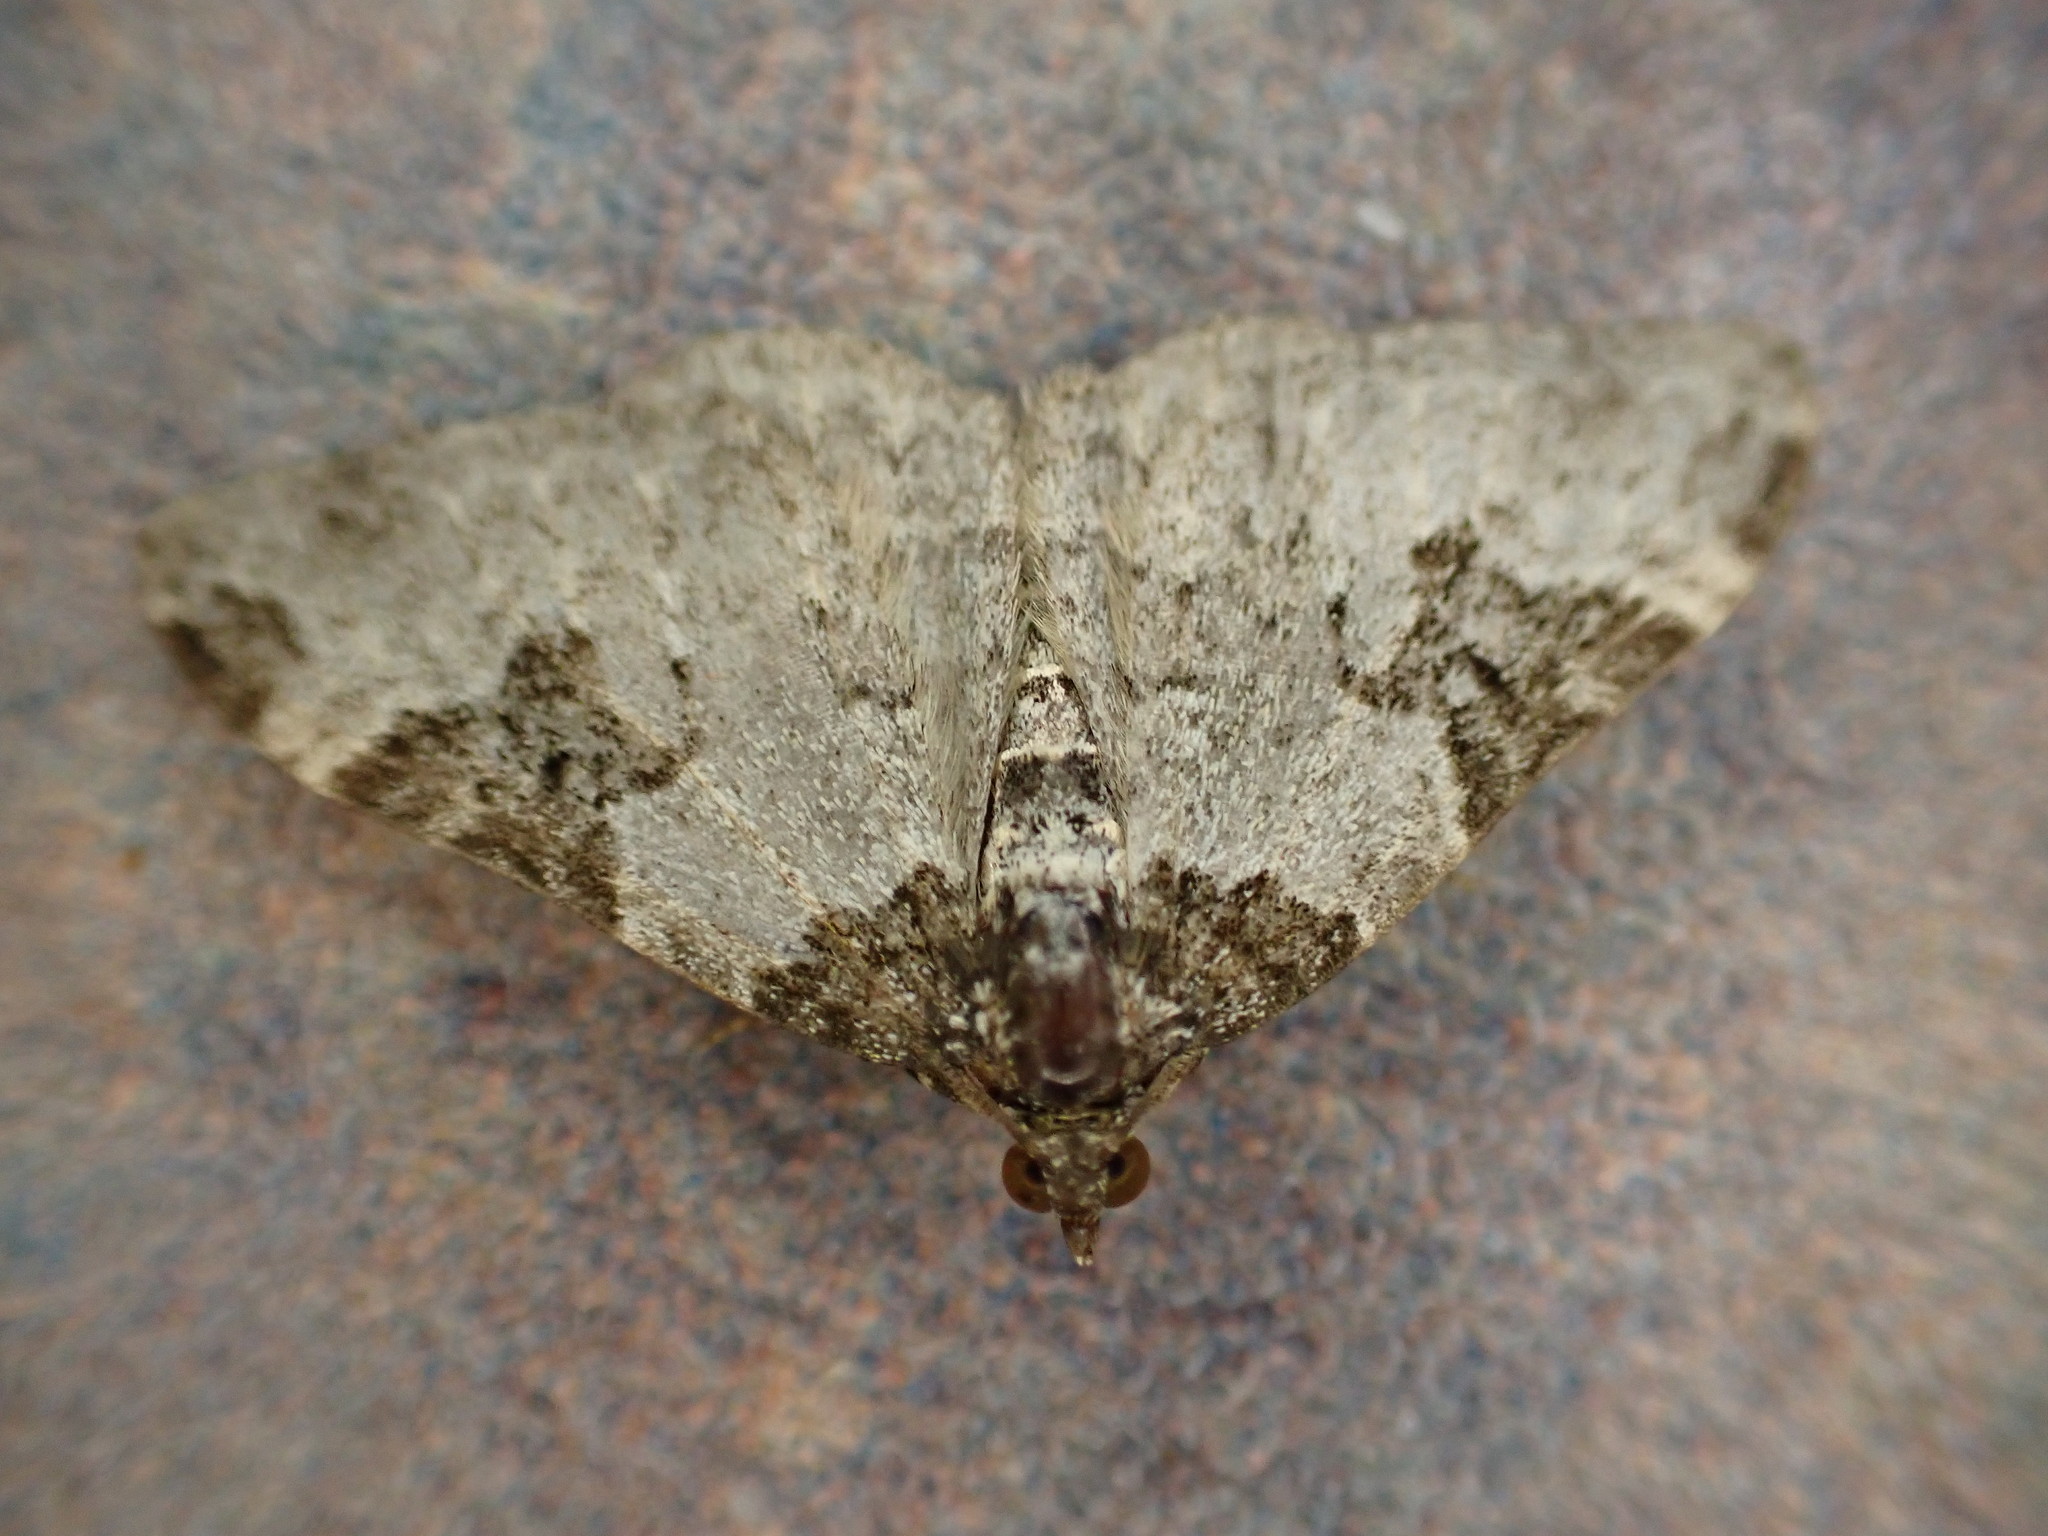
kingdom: Animalia
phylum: Arthropoda
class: Insecta
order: Lepidoptera
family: Geometridae
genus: Xanthorhoe
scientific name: Xanthorhoe fluctuata
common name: Garden carpet
